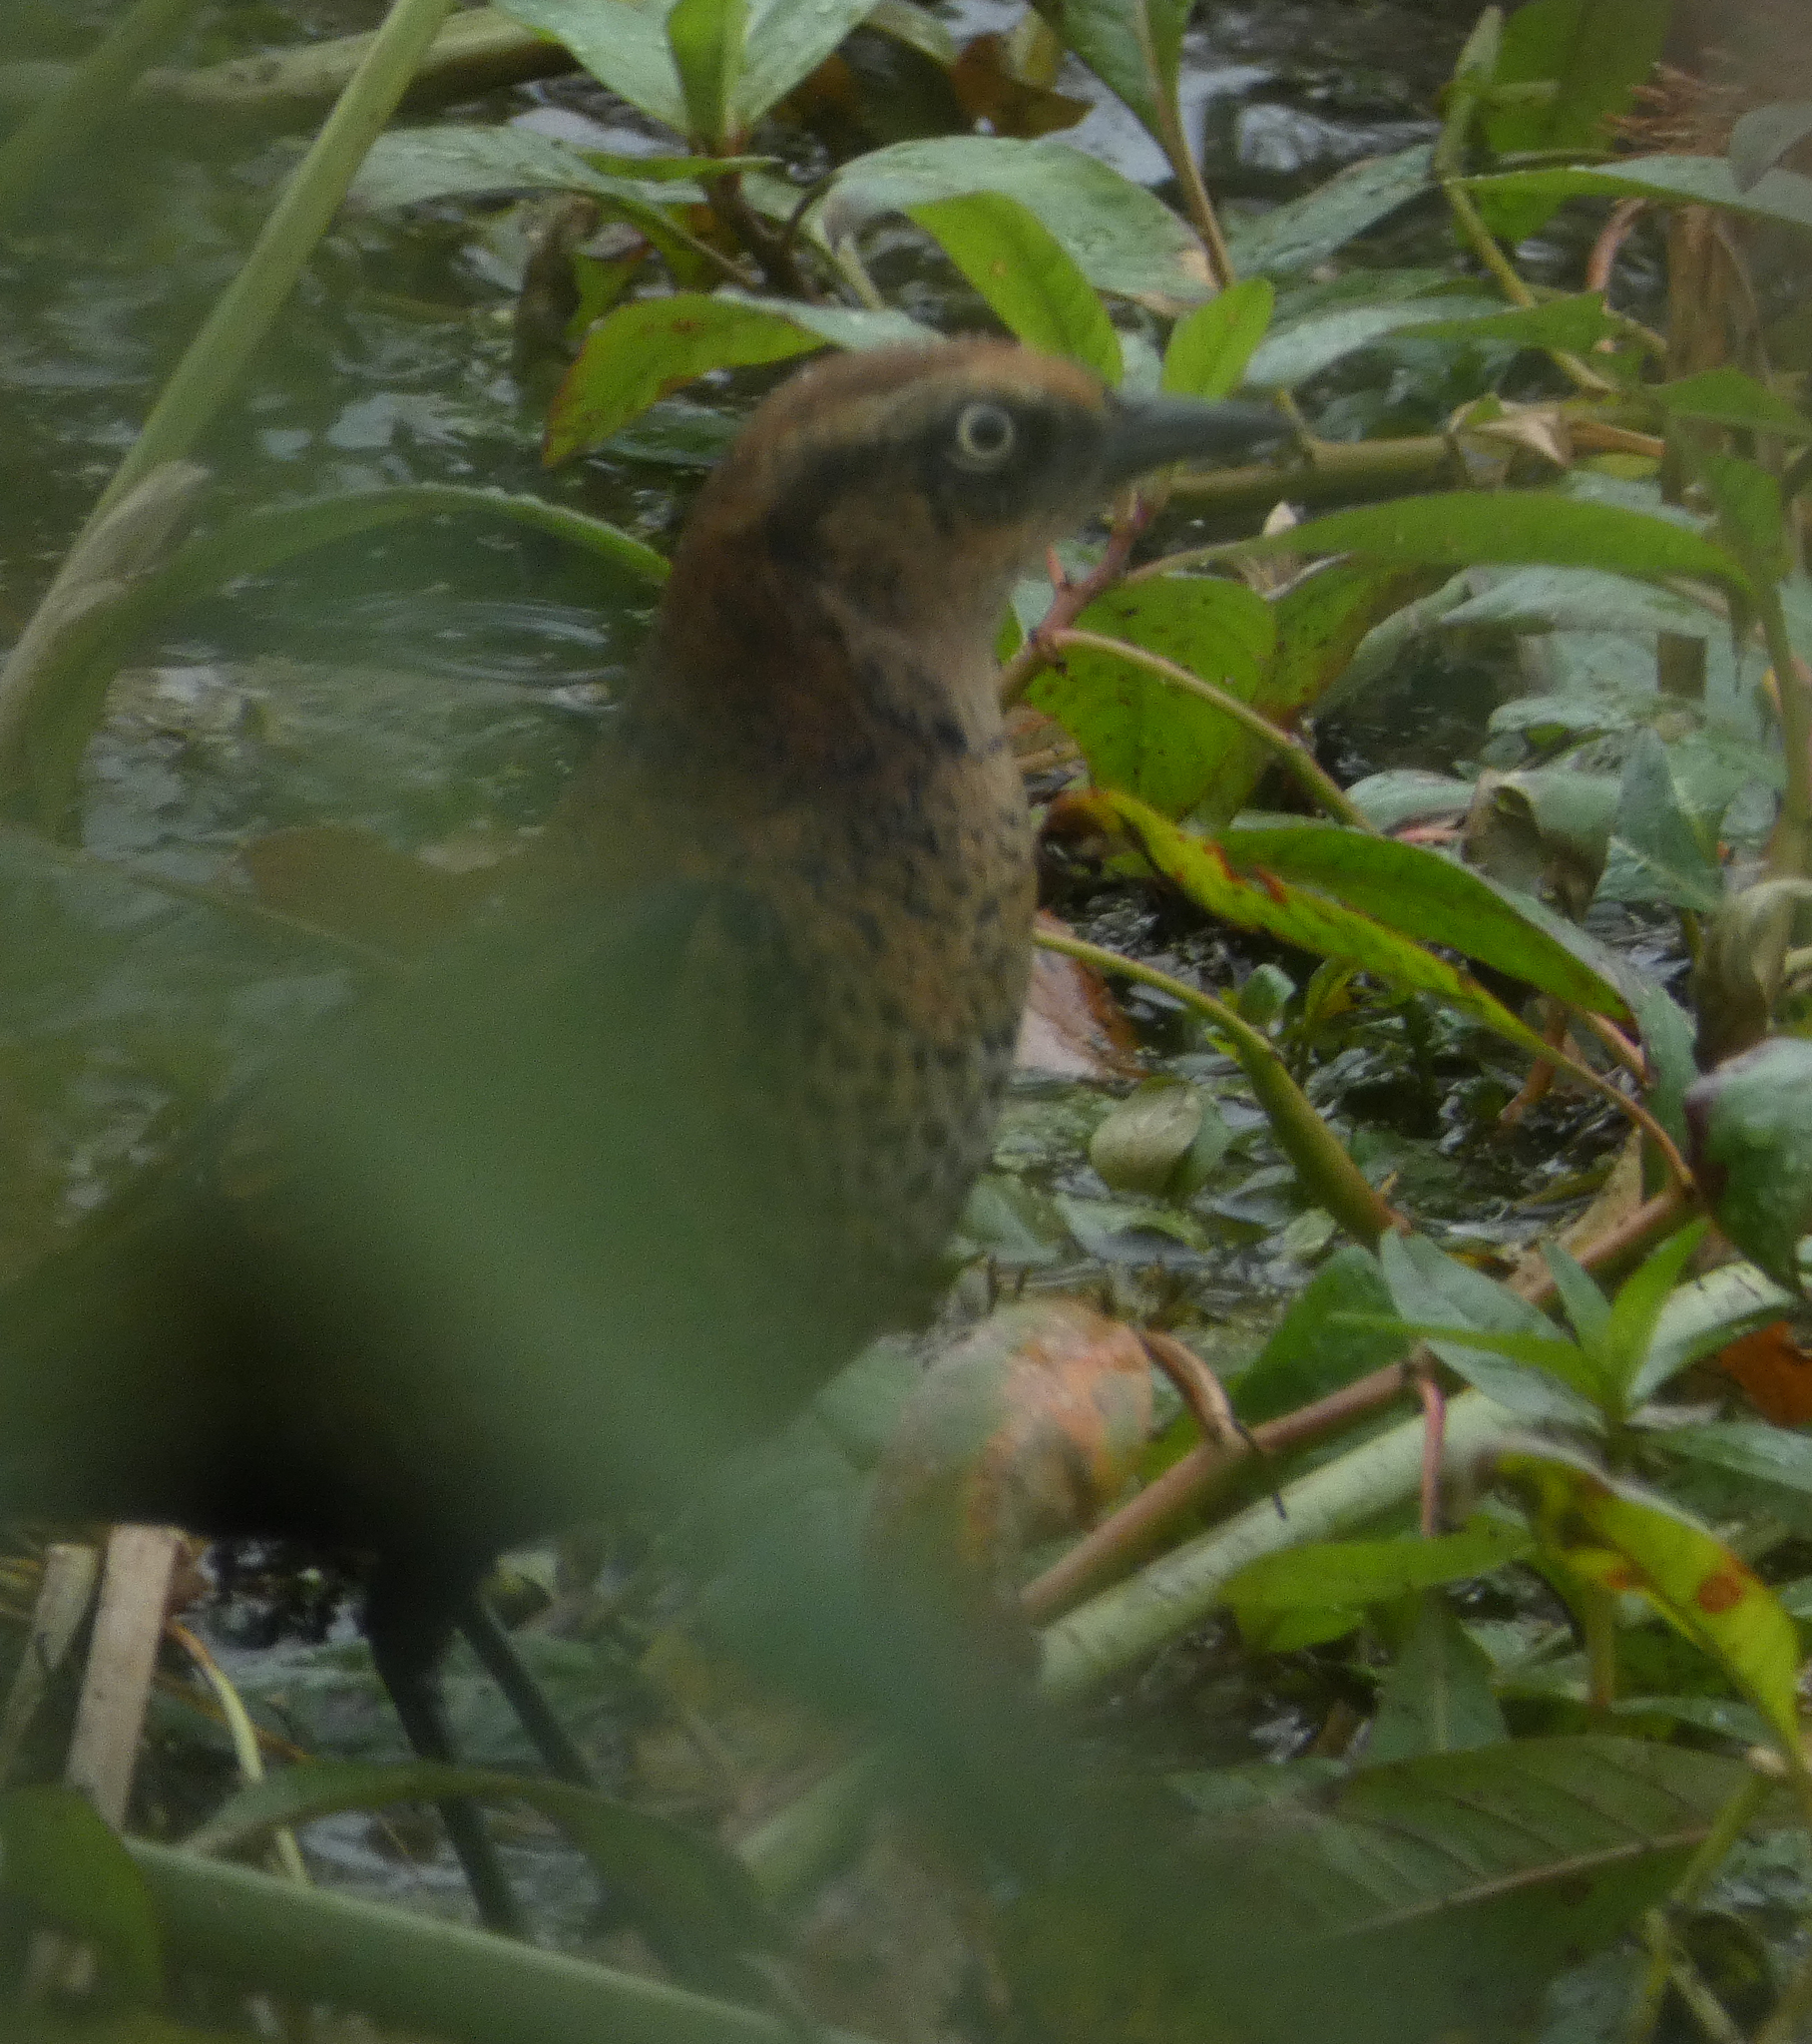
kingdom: Animalia
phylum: Chordata
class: Aves
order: Passeriformes
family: Icteridae
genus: Euphagus
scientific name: Euphagus carolinus
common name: Rusty blackbird
